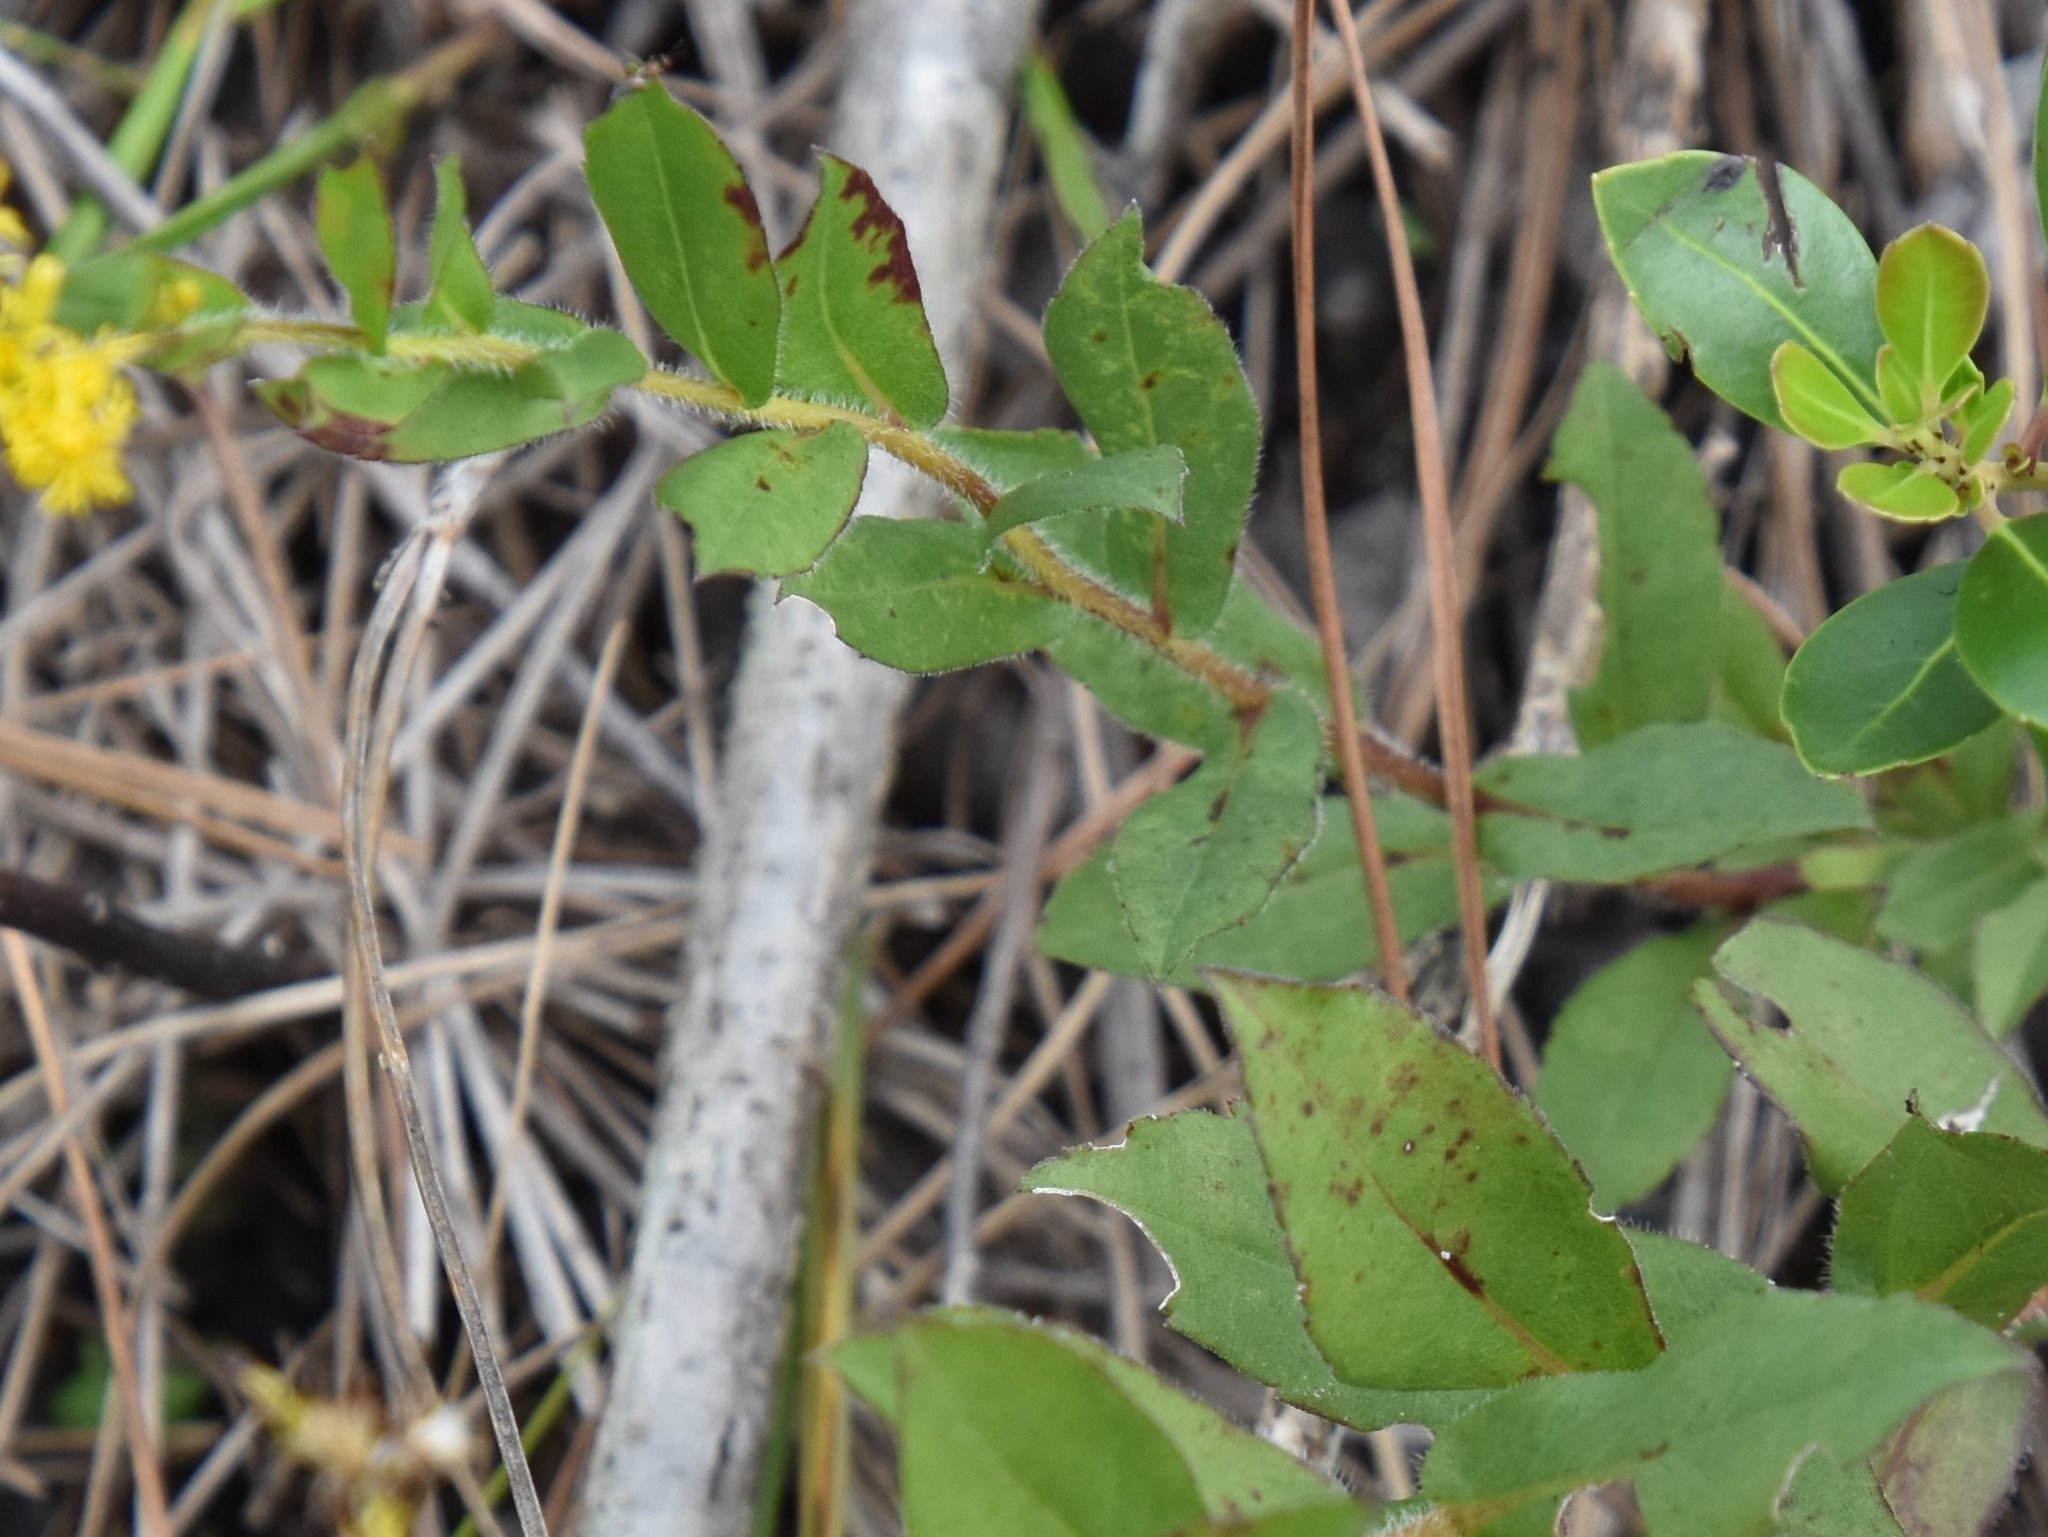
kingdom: Plantae
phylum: Tracheophyta
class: Magnoliopsida
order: Asterales
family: Asteraceae
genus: Solidago
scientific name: Solidago fistulosa
